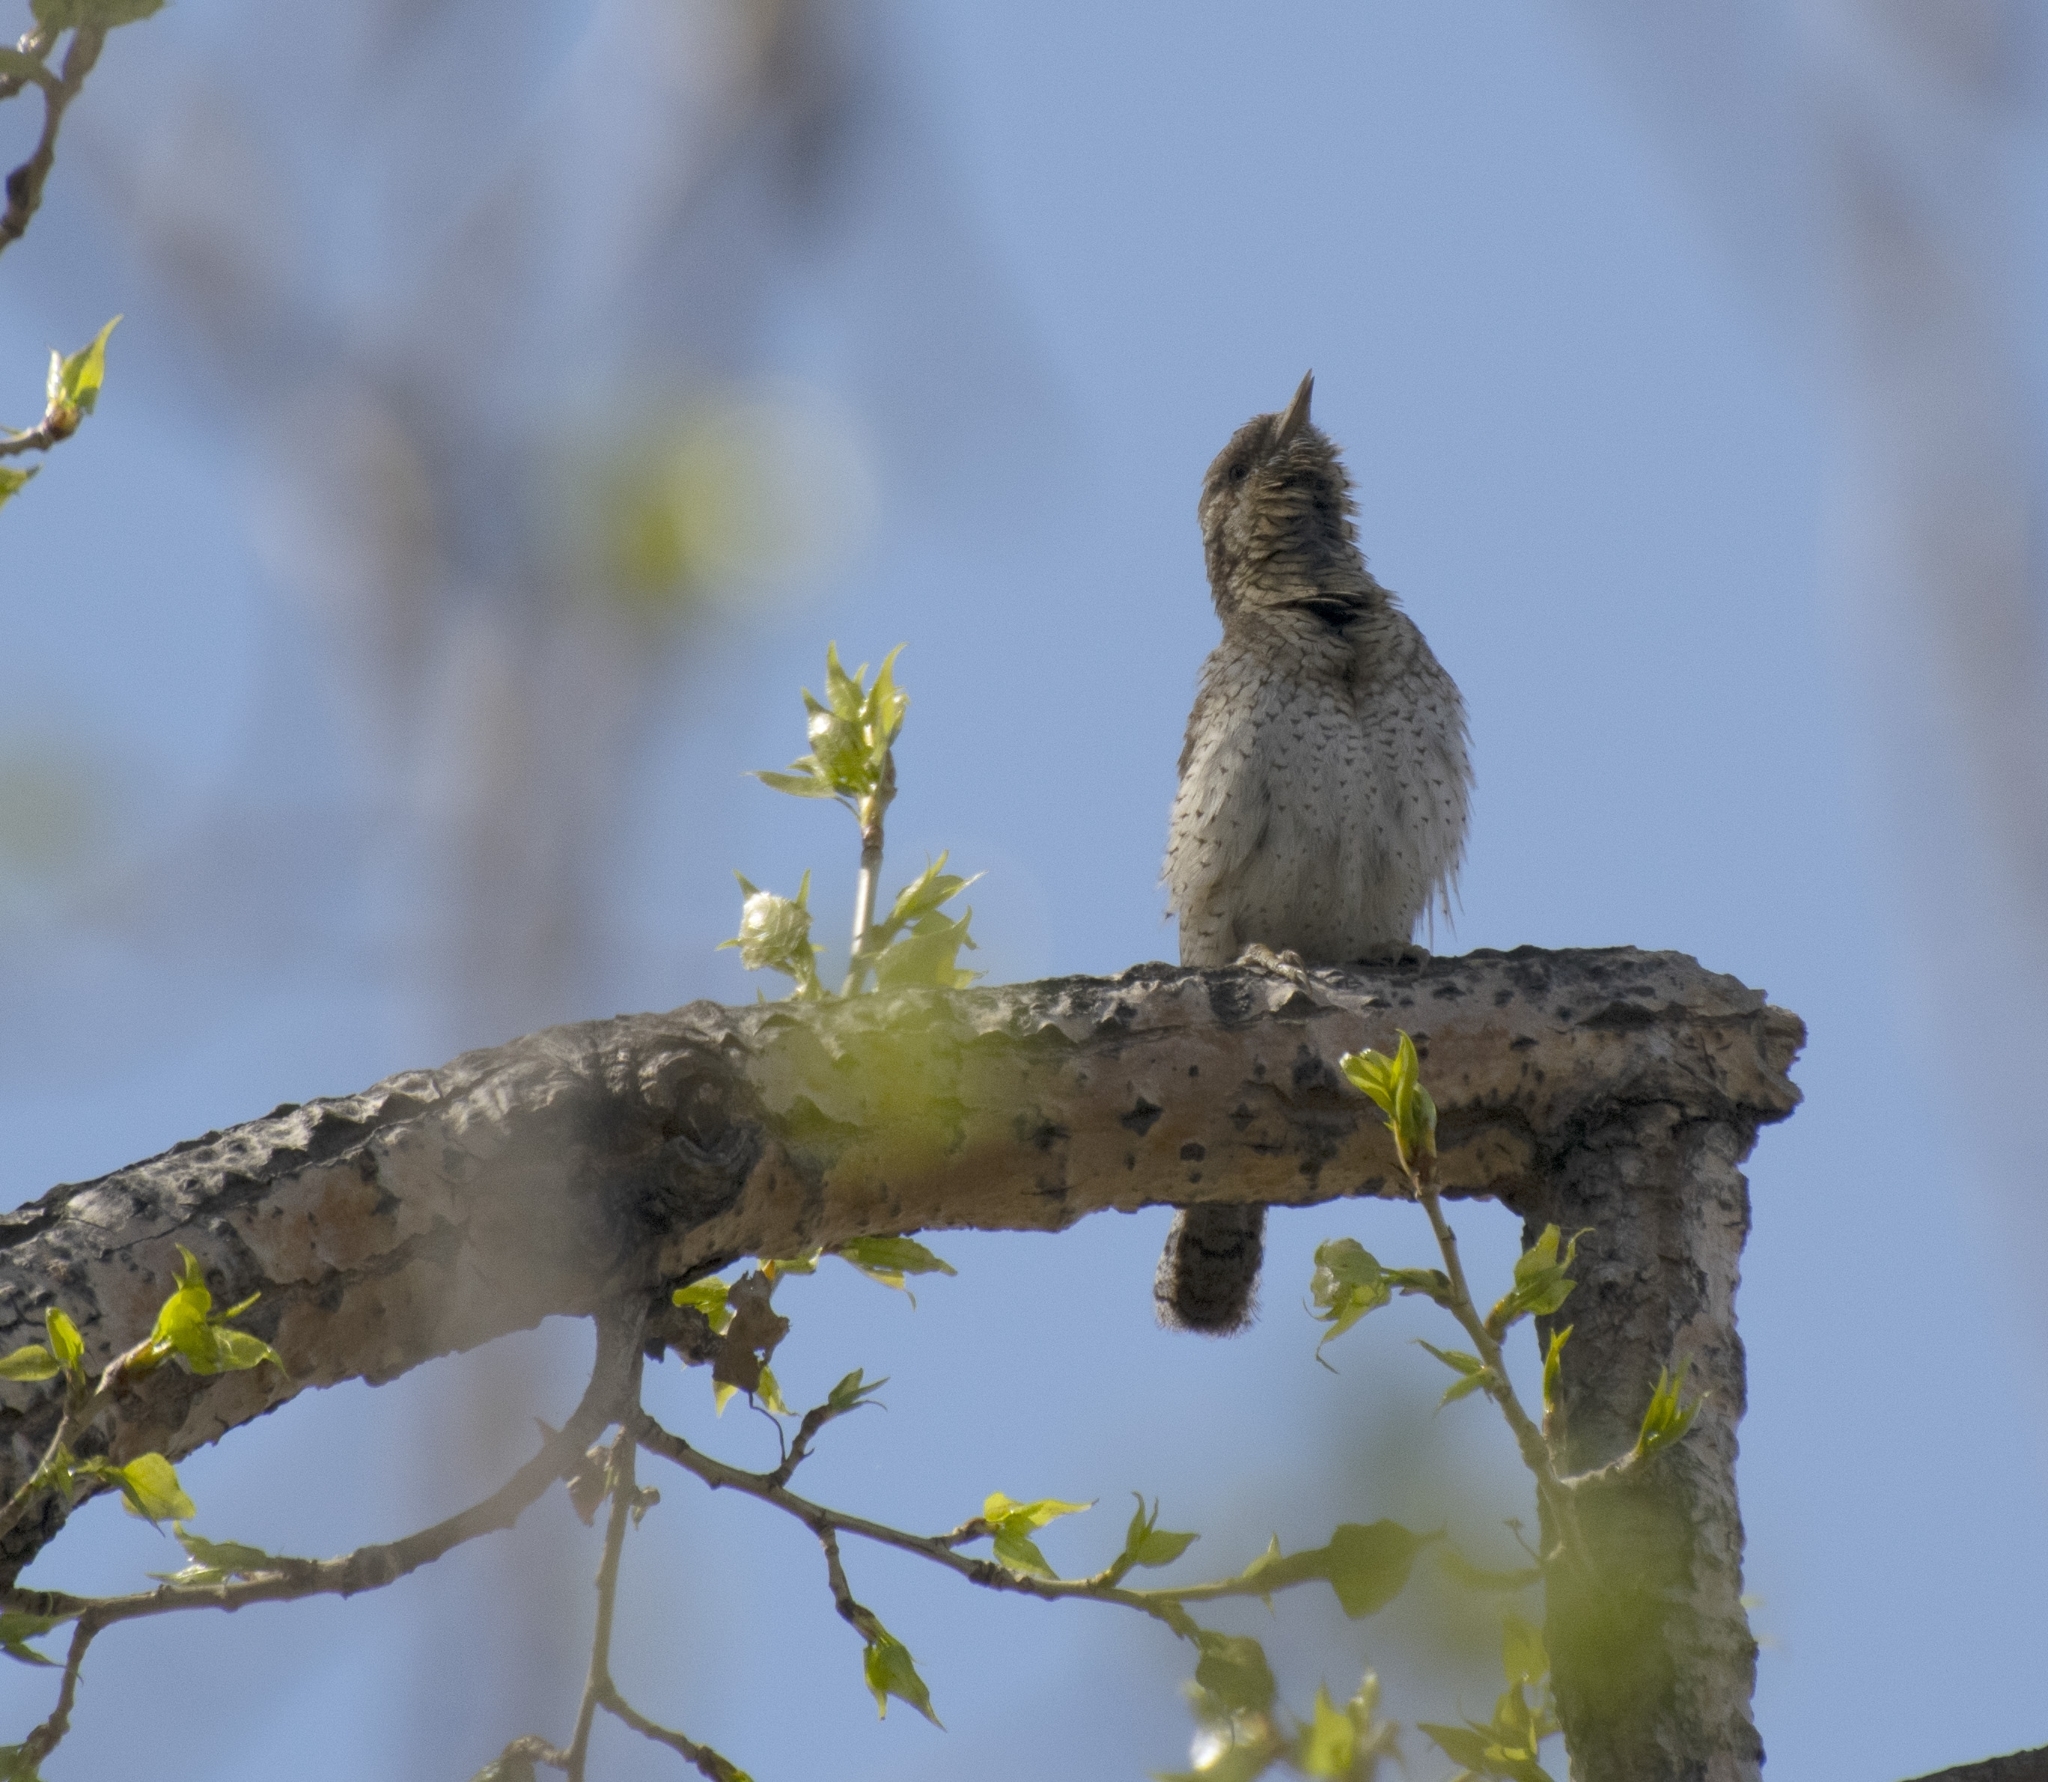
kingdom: Animalia
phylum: Chordata
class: Aves
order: Piciformes
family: Picidae
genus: Jynx
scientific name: Jynx torquilla
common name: Eurasian wryneck
